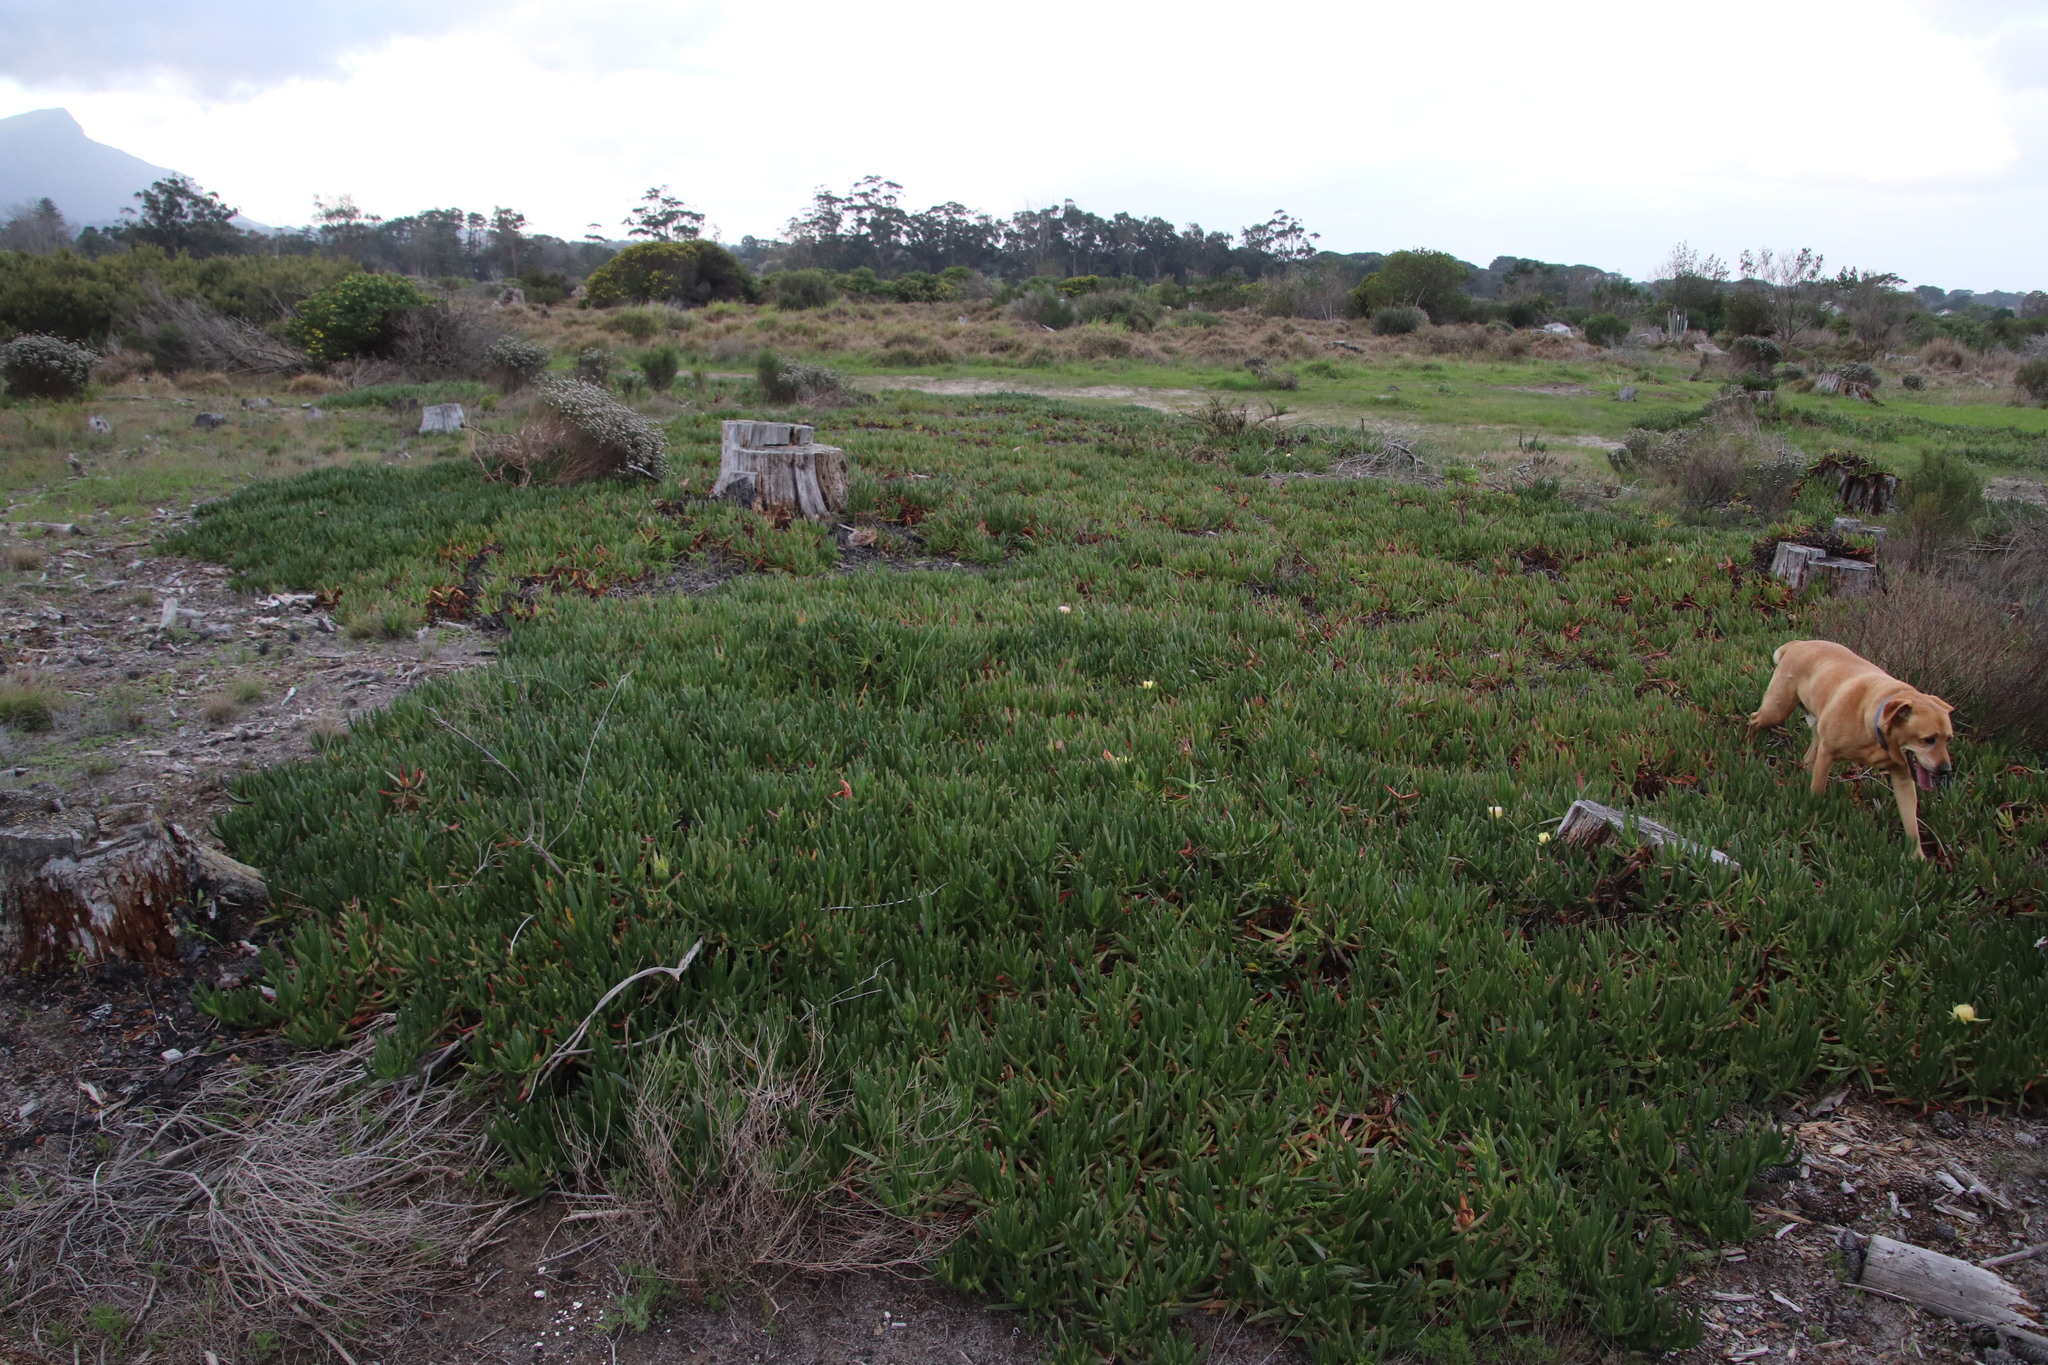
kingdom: Plantae
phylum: Tracheophyta
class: Magnoliopsida
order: Caryophyllales
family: Aizoaceae
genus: Carpobrotus
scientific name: Carpobrotus edulis
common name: Hottentot-fig
